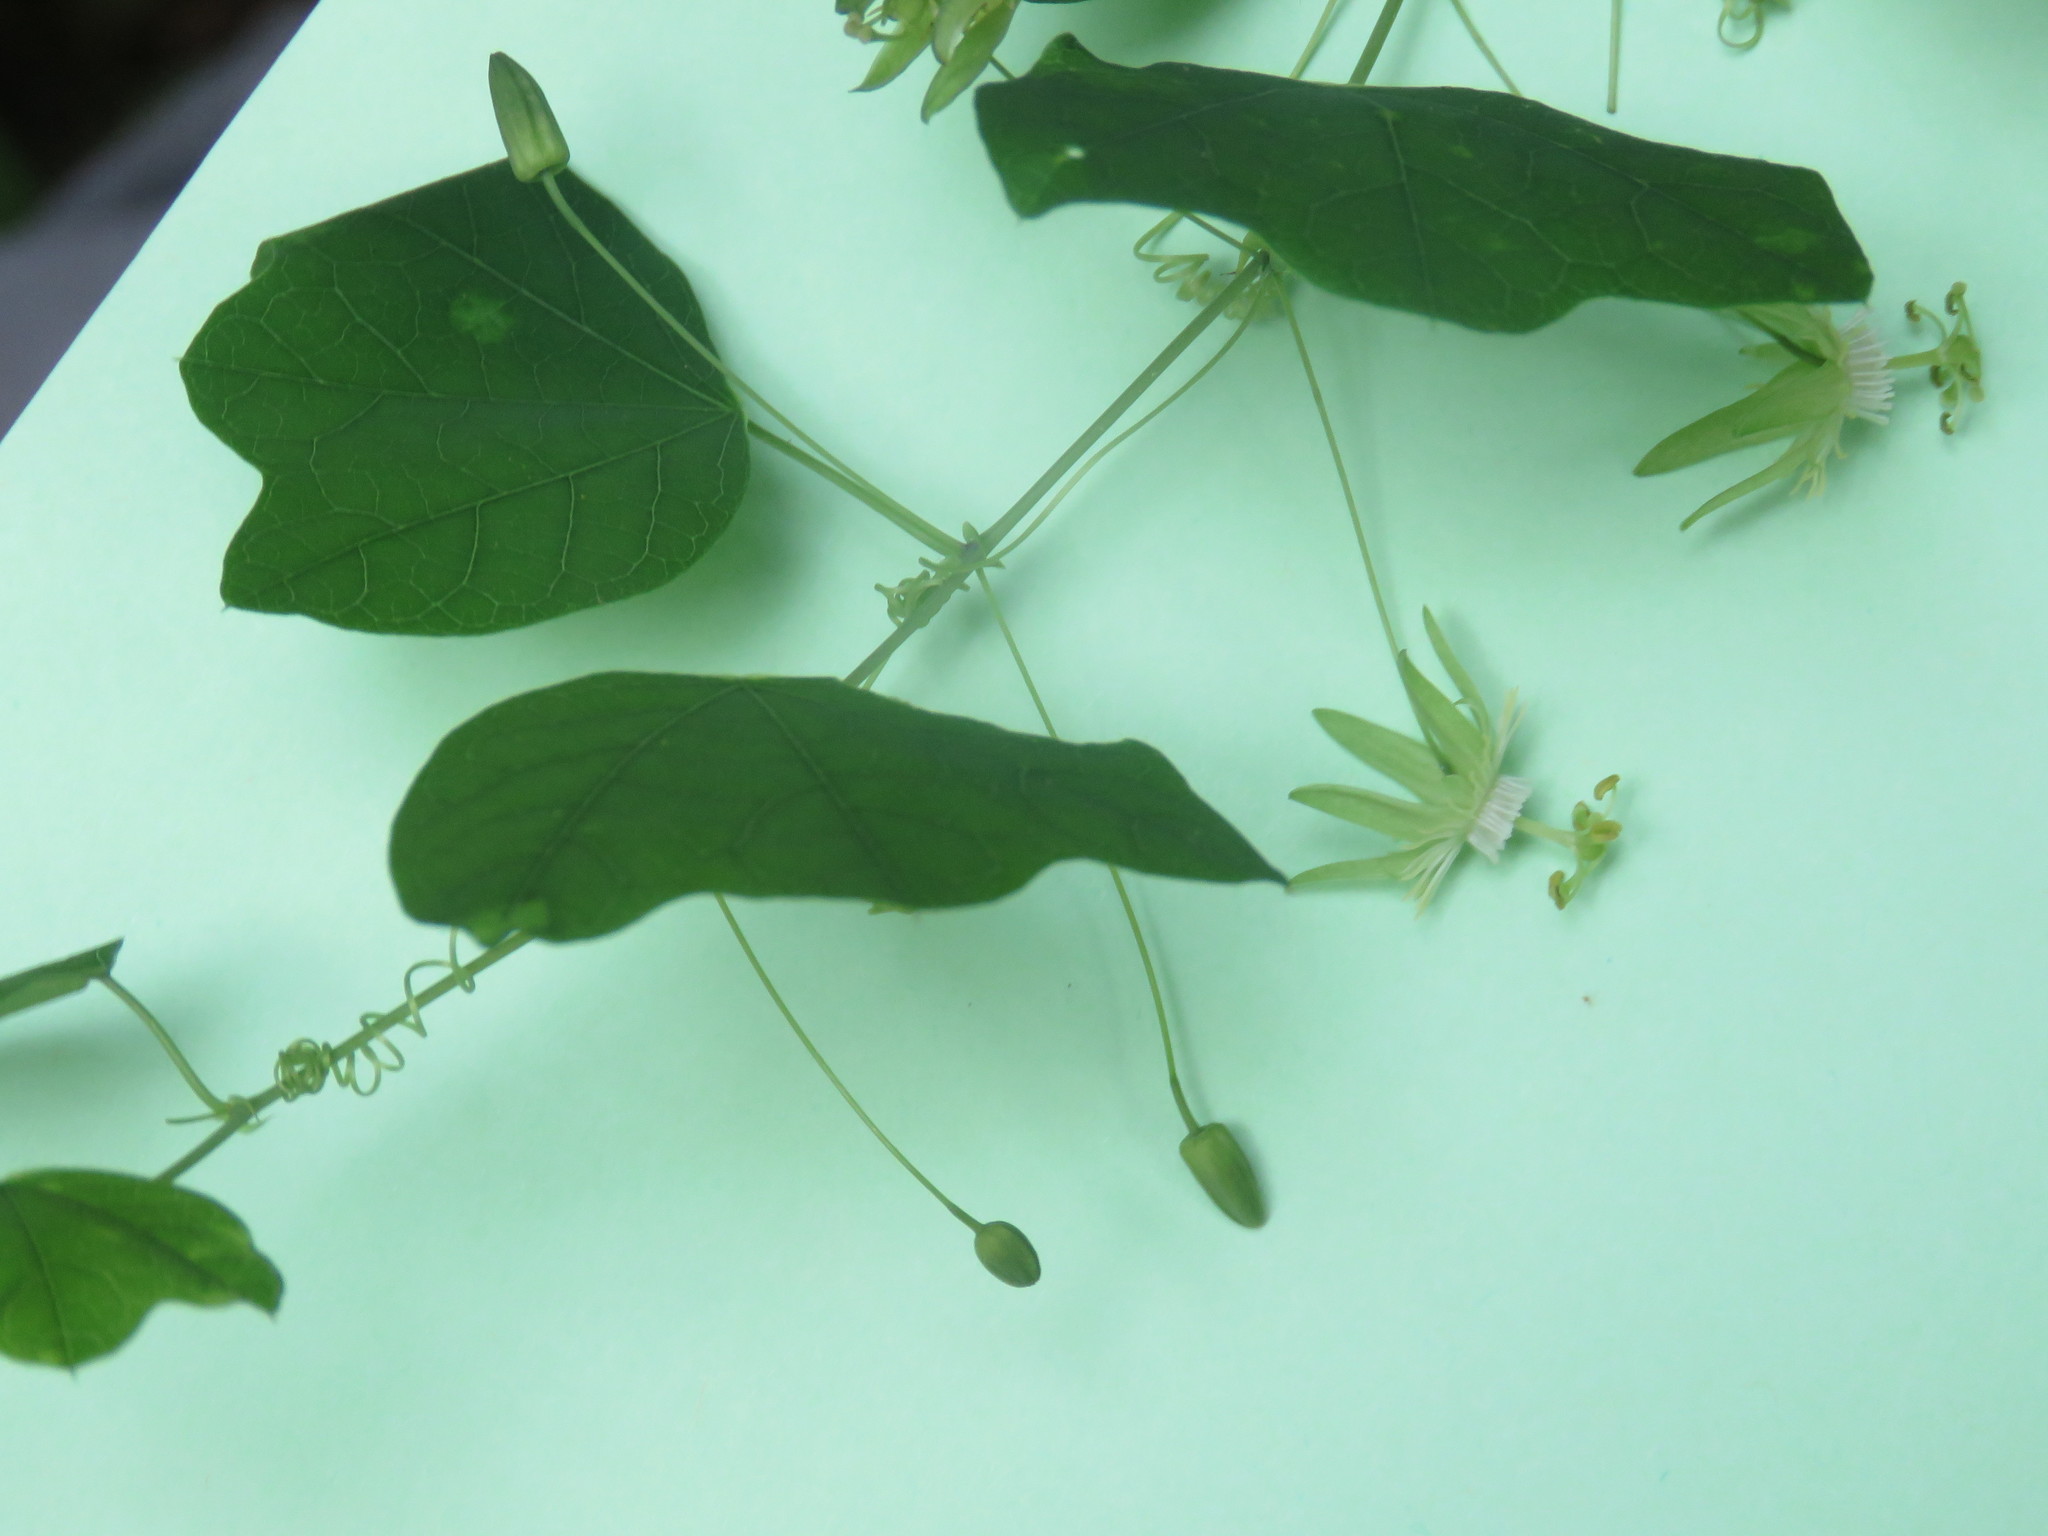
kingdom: Plantae
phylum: Tracheophyta
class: Magnoliopsida
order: Malpighiales
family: Passifloraceae
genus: Passiflora
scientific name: Passiflora filipes
